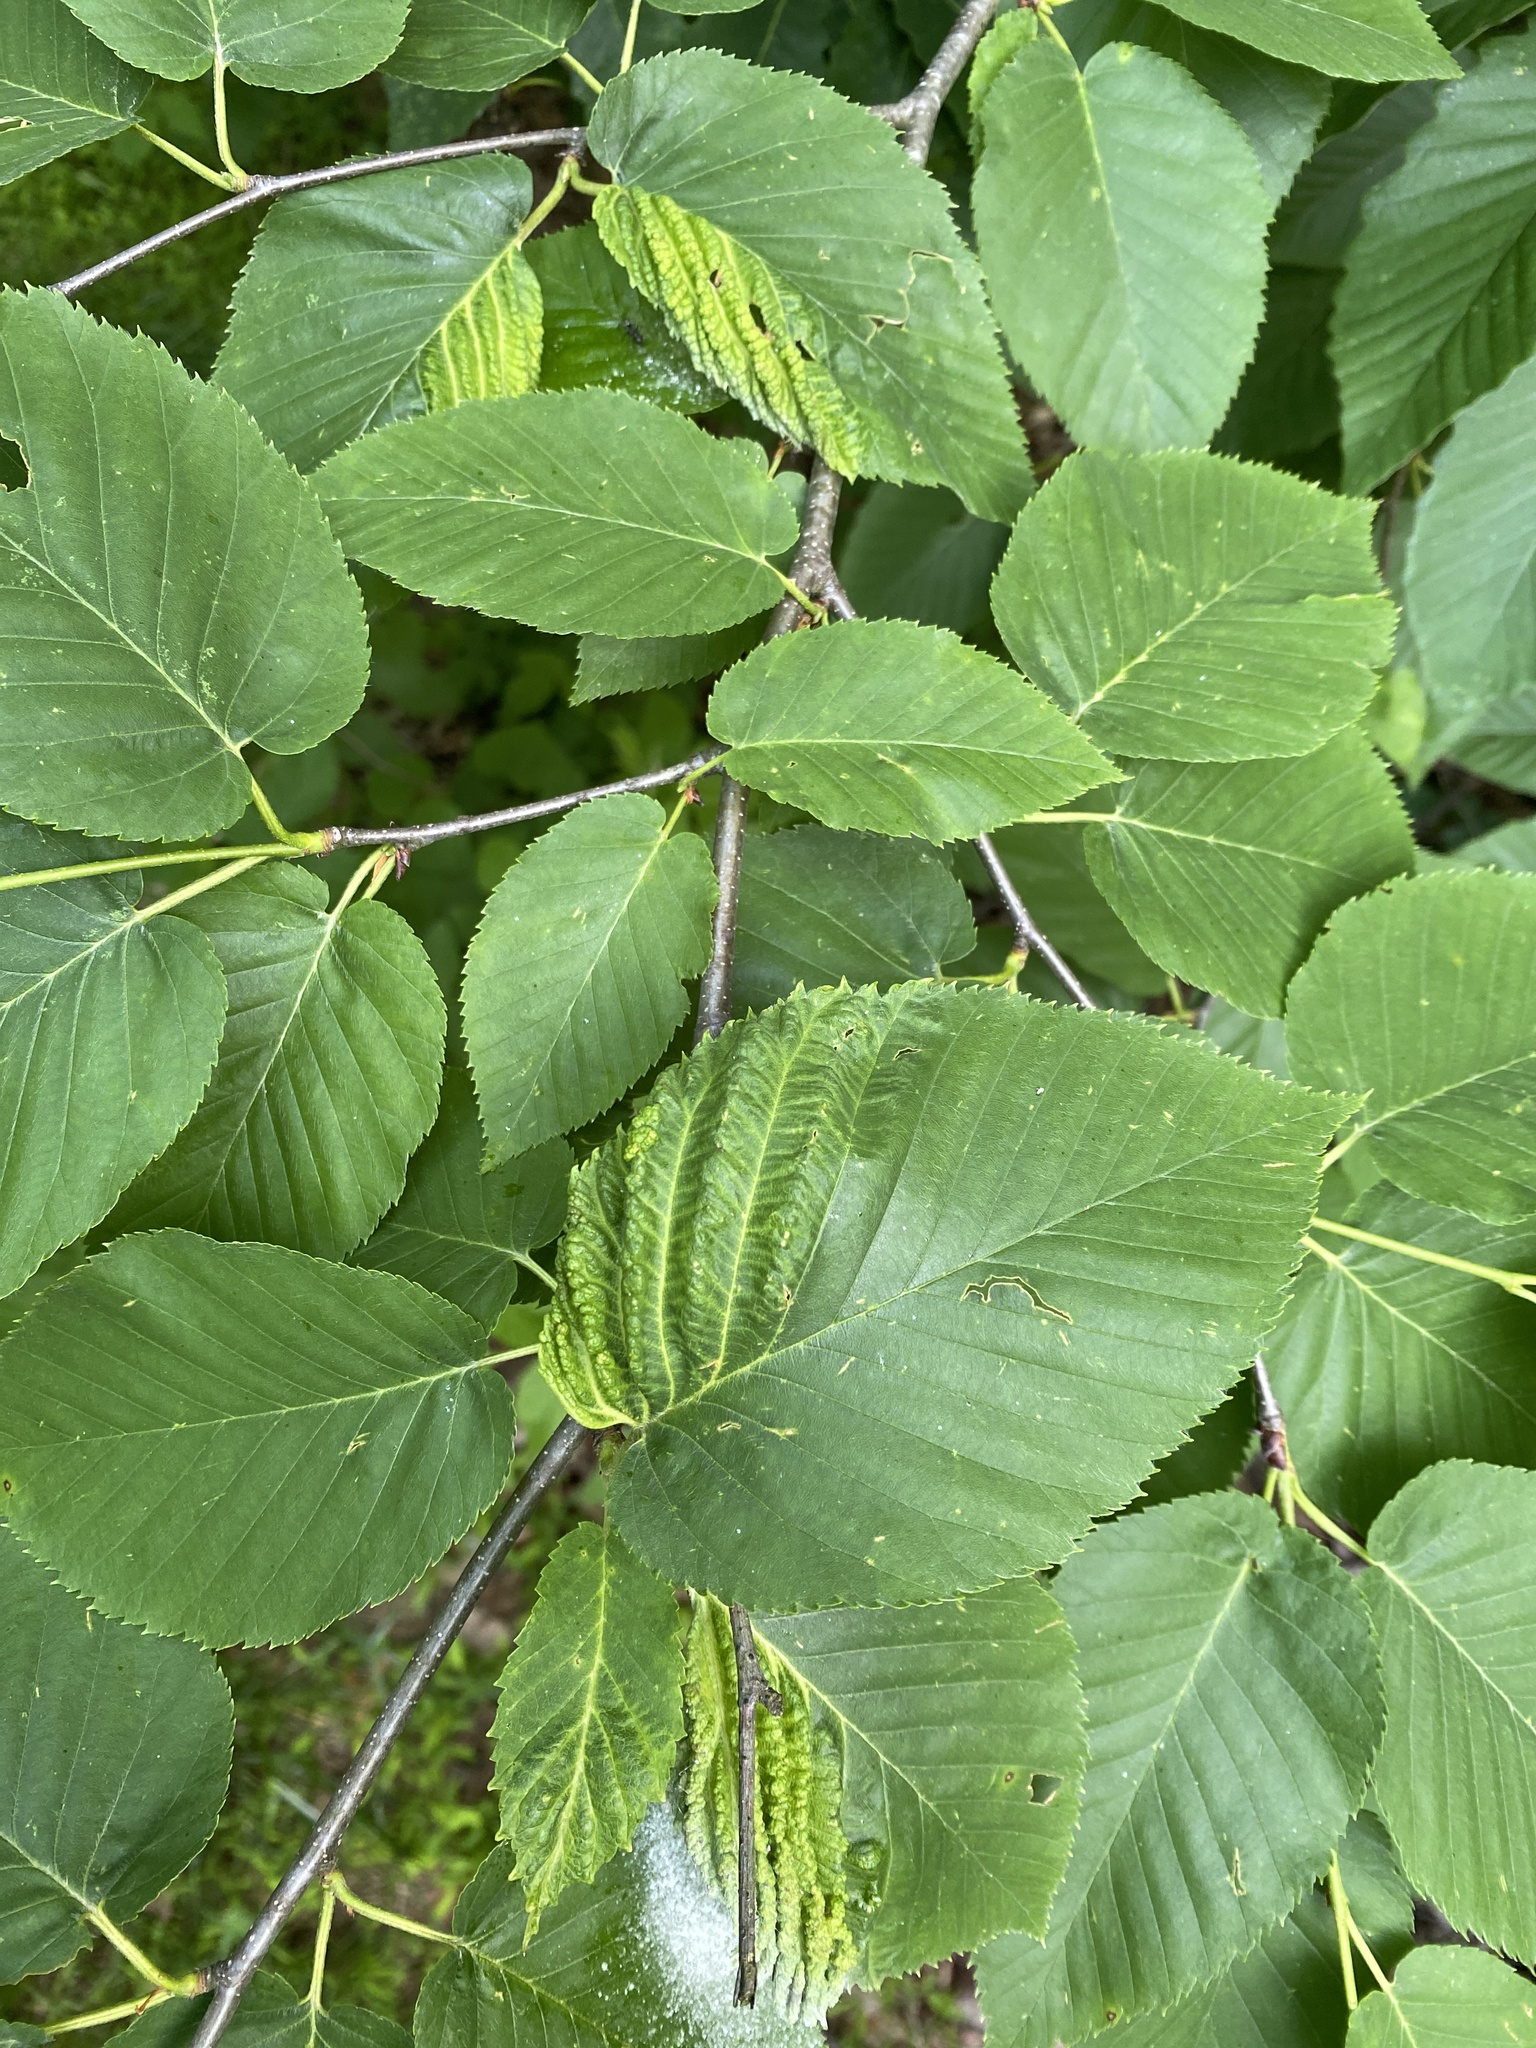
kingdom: Animalia
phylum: Arthropoda
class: Insecta
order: Hemiptera
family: Aphididae
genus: Hamamelistes
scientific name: Hamamelistes spinosus
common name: Witch hazel gall aphid
